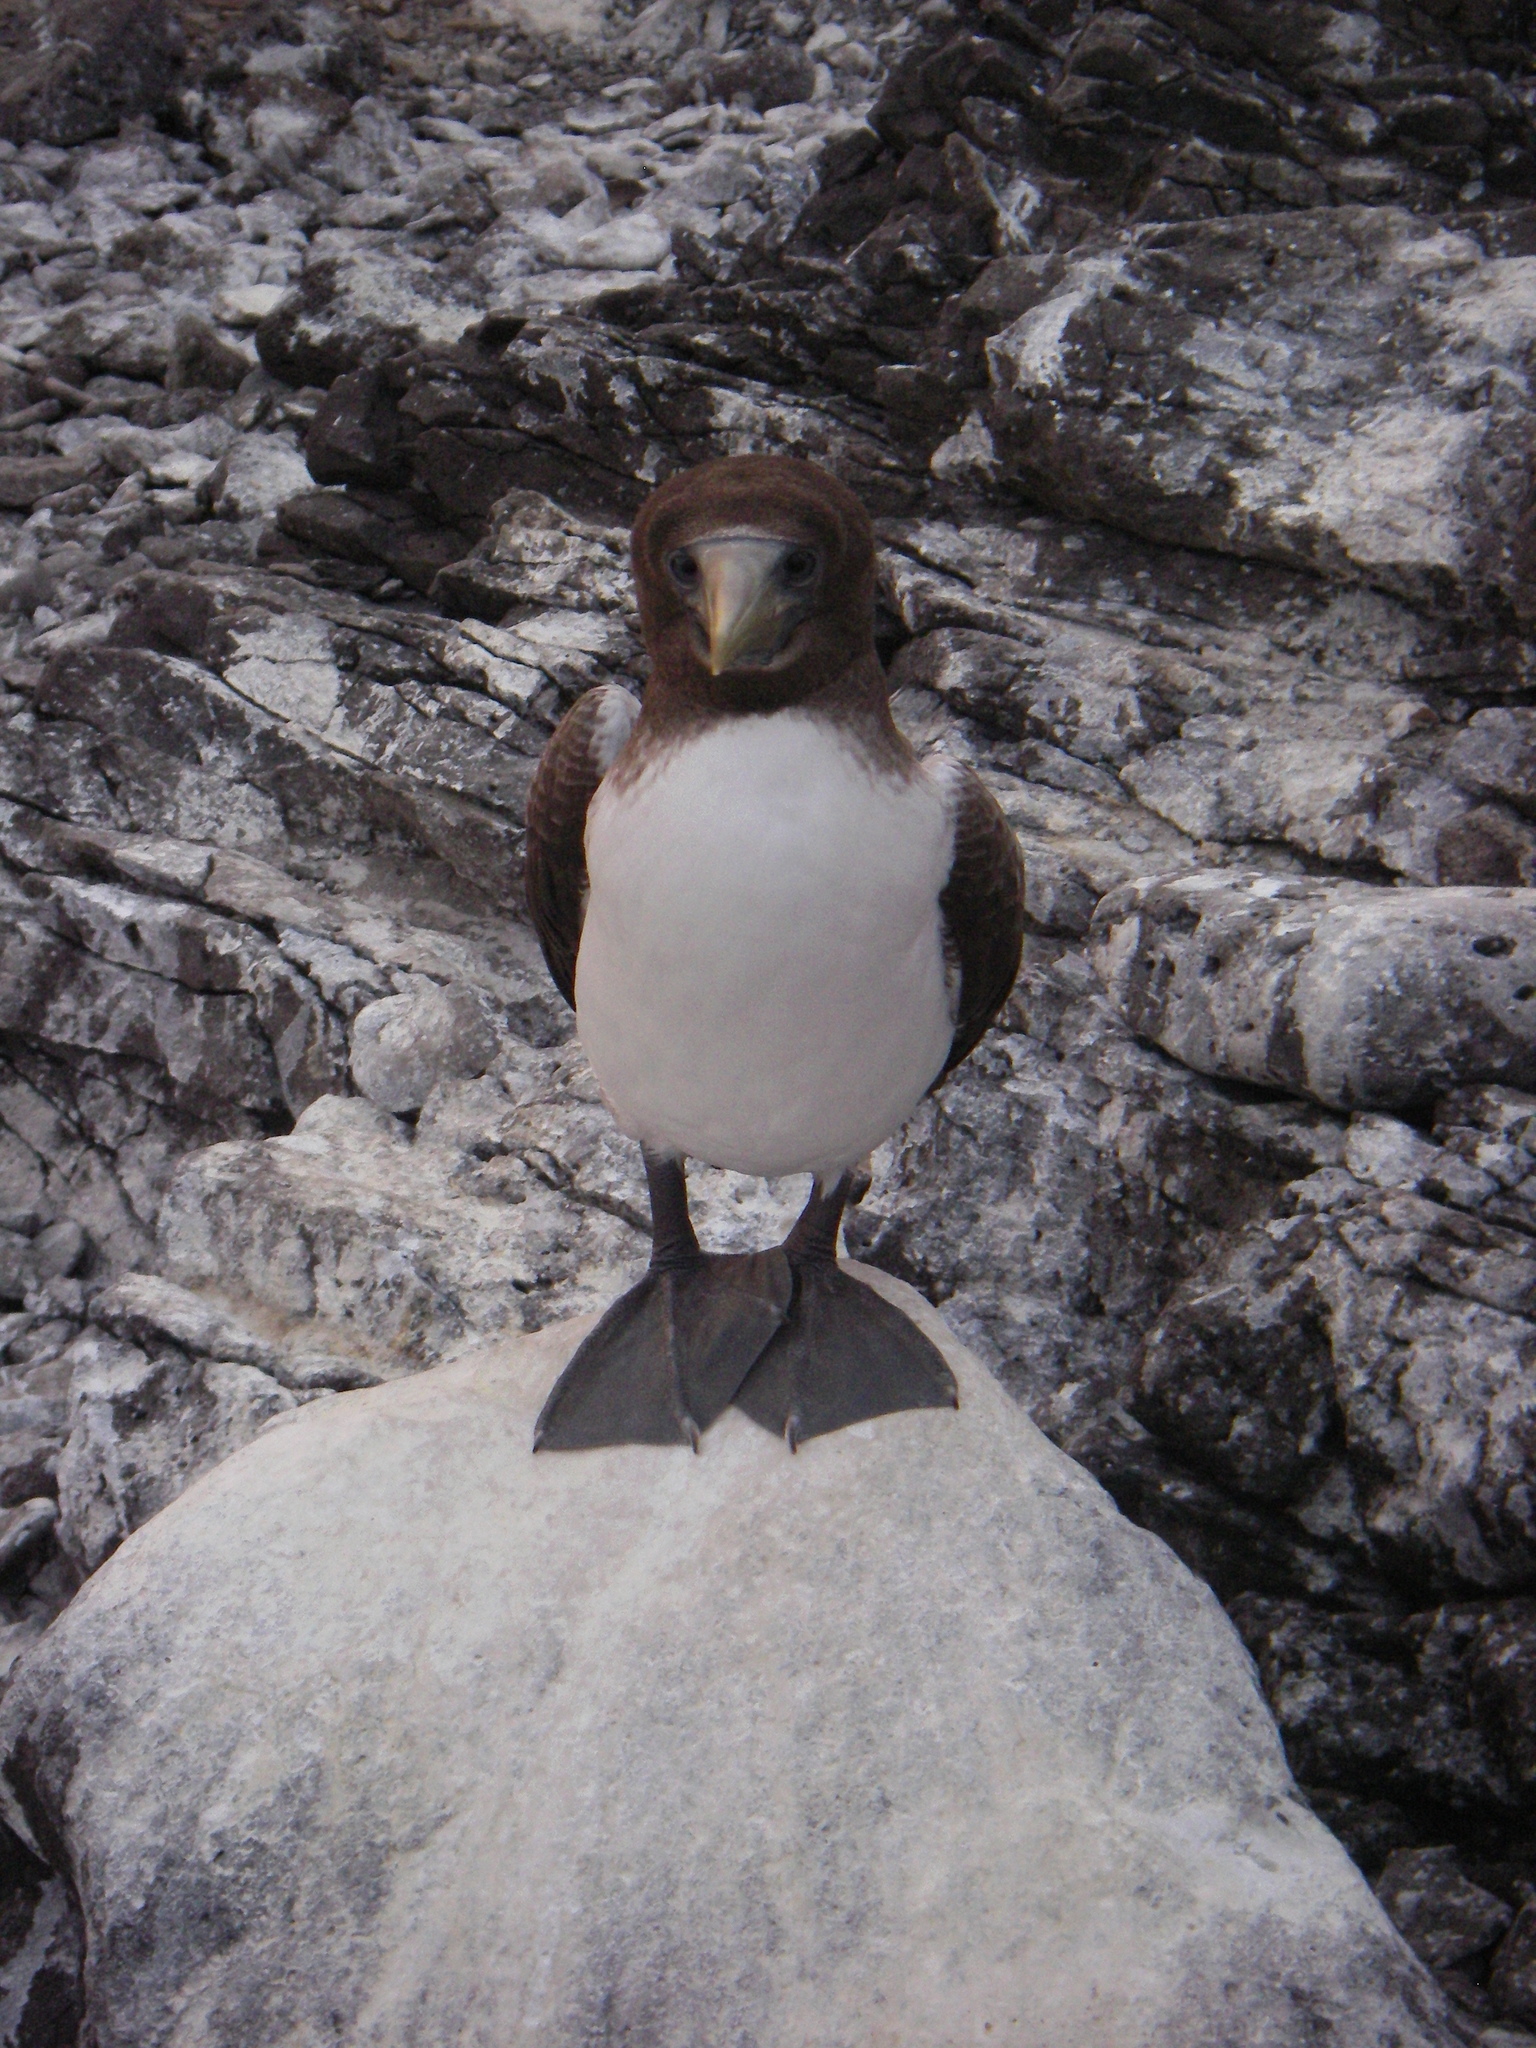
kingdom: Animalia
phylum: Chordata
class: Aves
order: Suliformes
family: Sulidae
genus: Sula
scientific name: Sula granti
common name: Nazca booby
